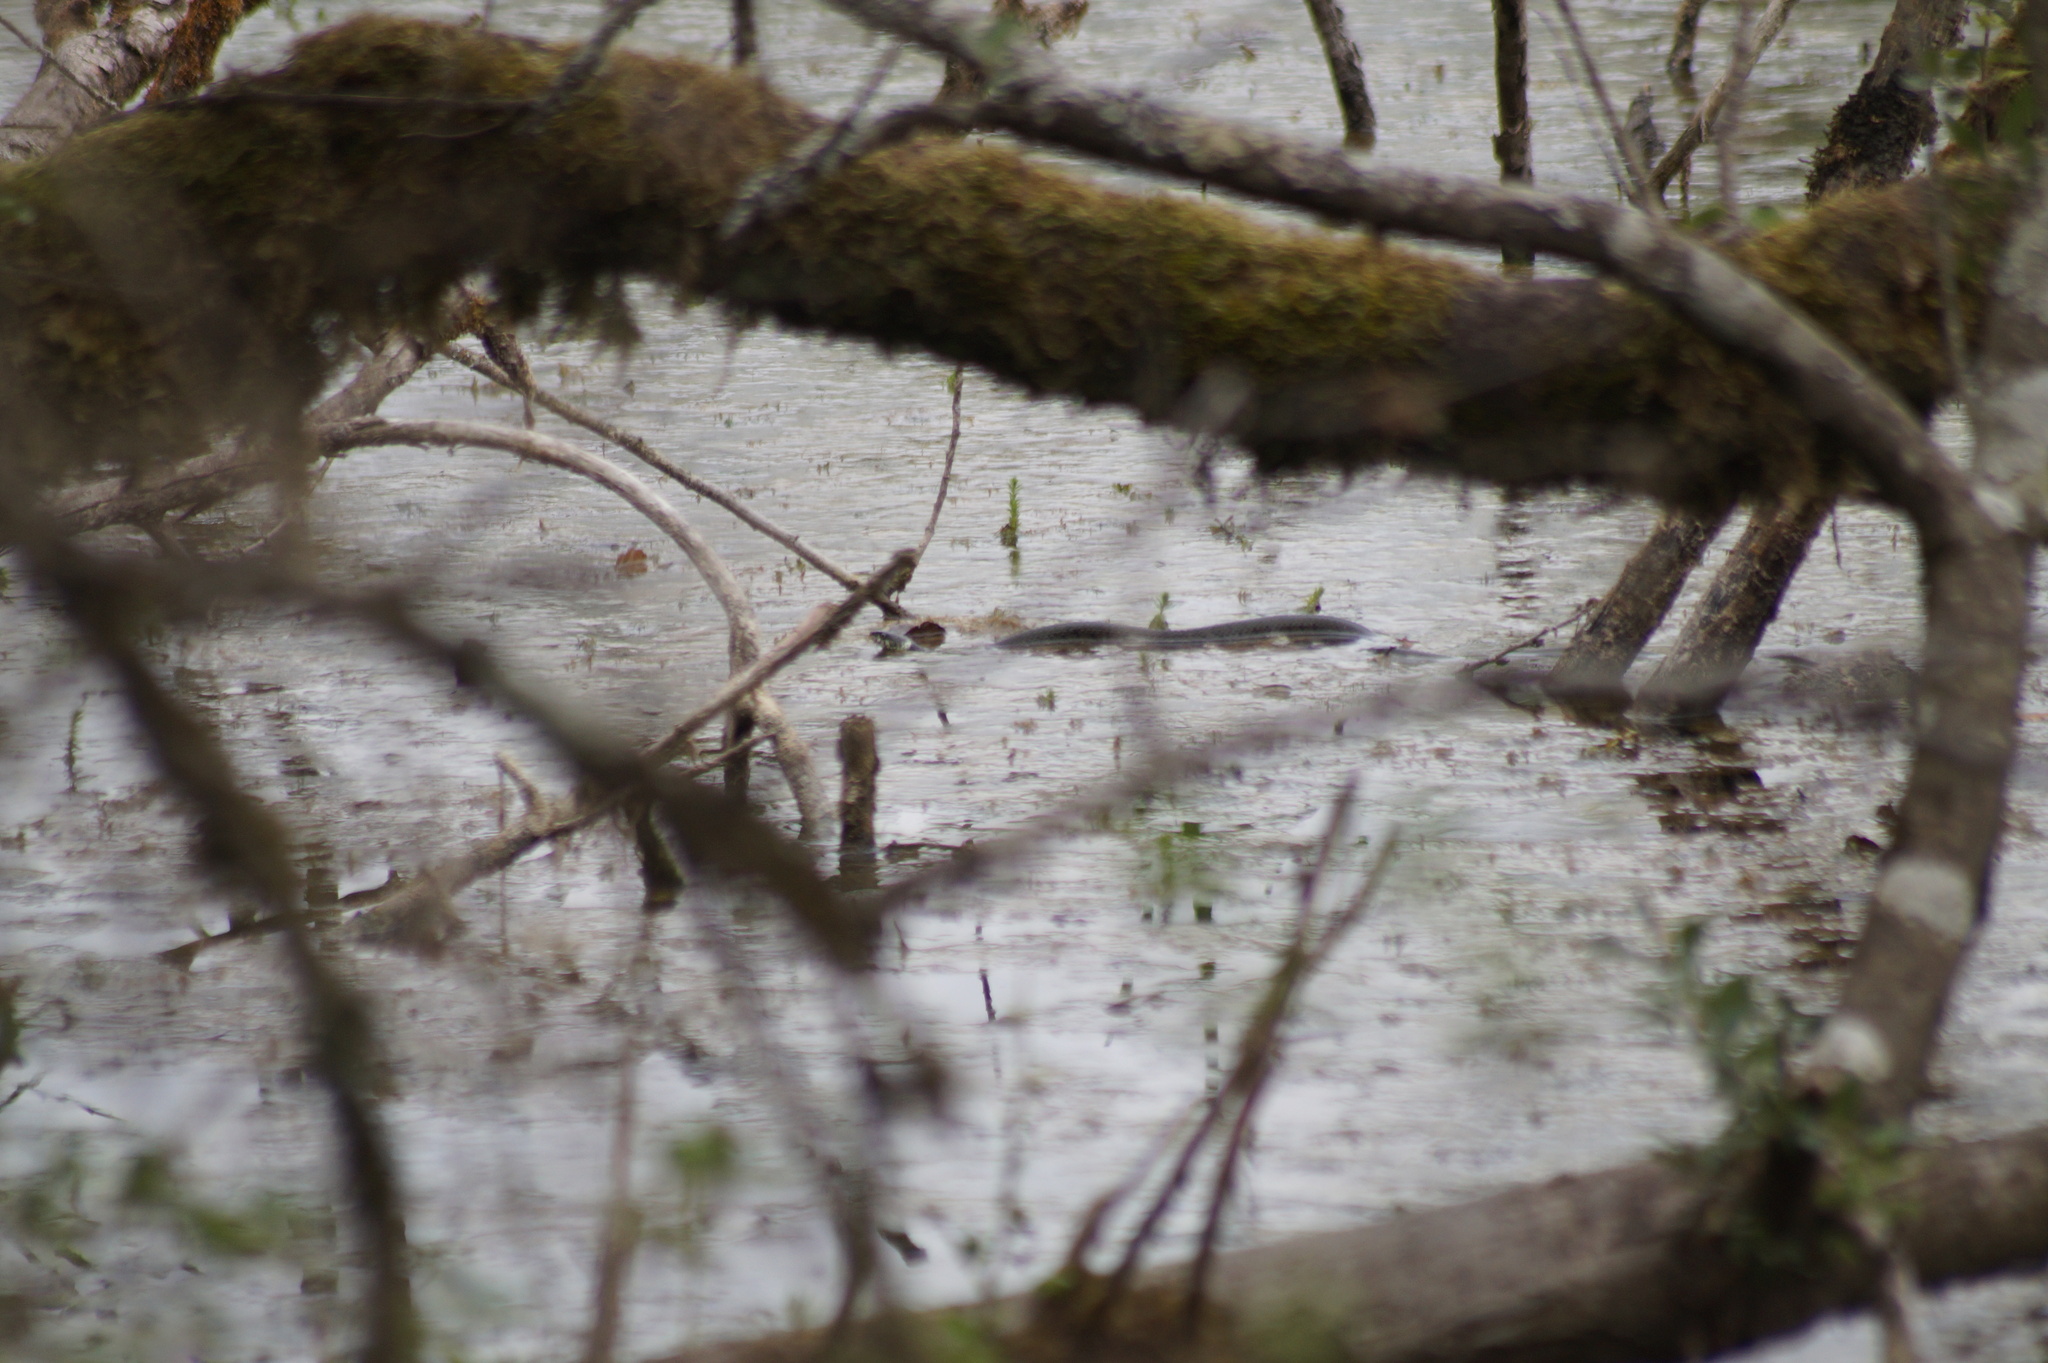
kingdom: Animalia
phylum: Chordata
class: Squamata
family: Colubridae
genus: Natrix
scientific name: Natrix helvetica
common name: Banded grass snake
